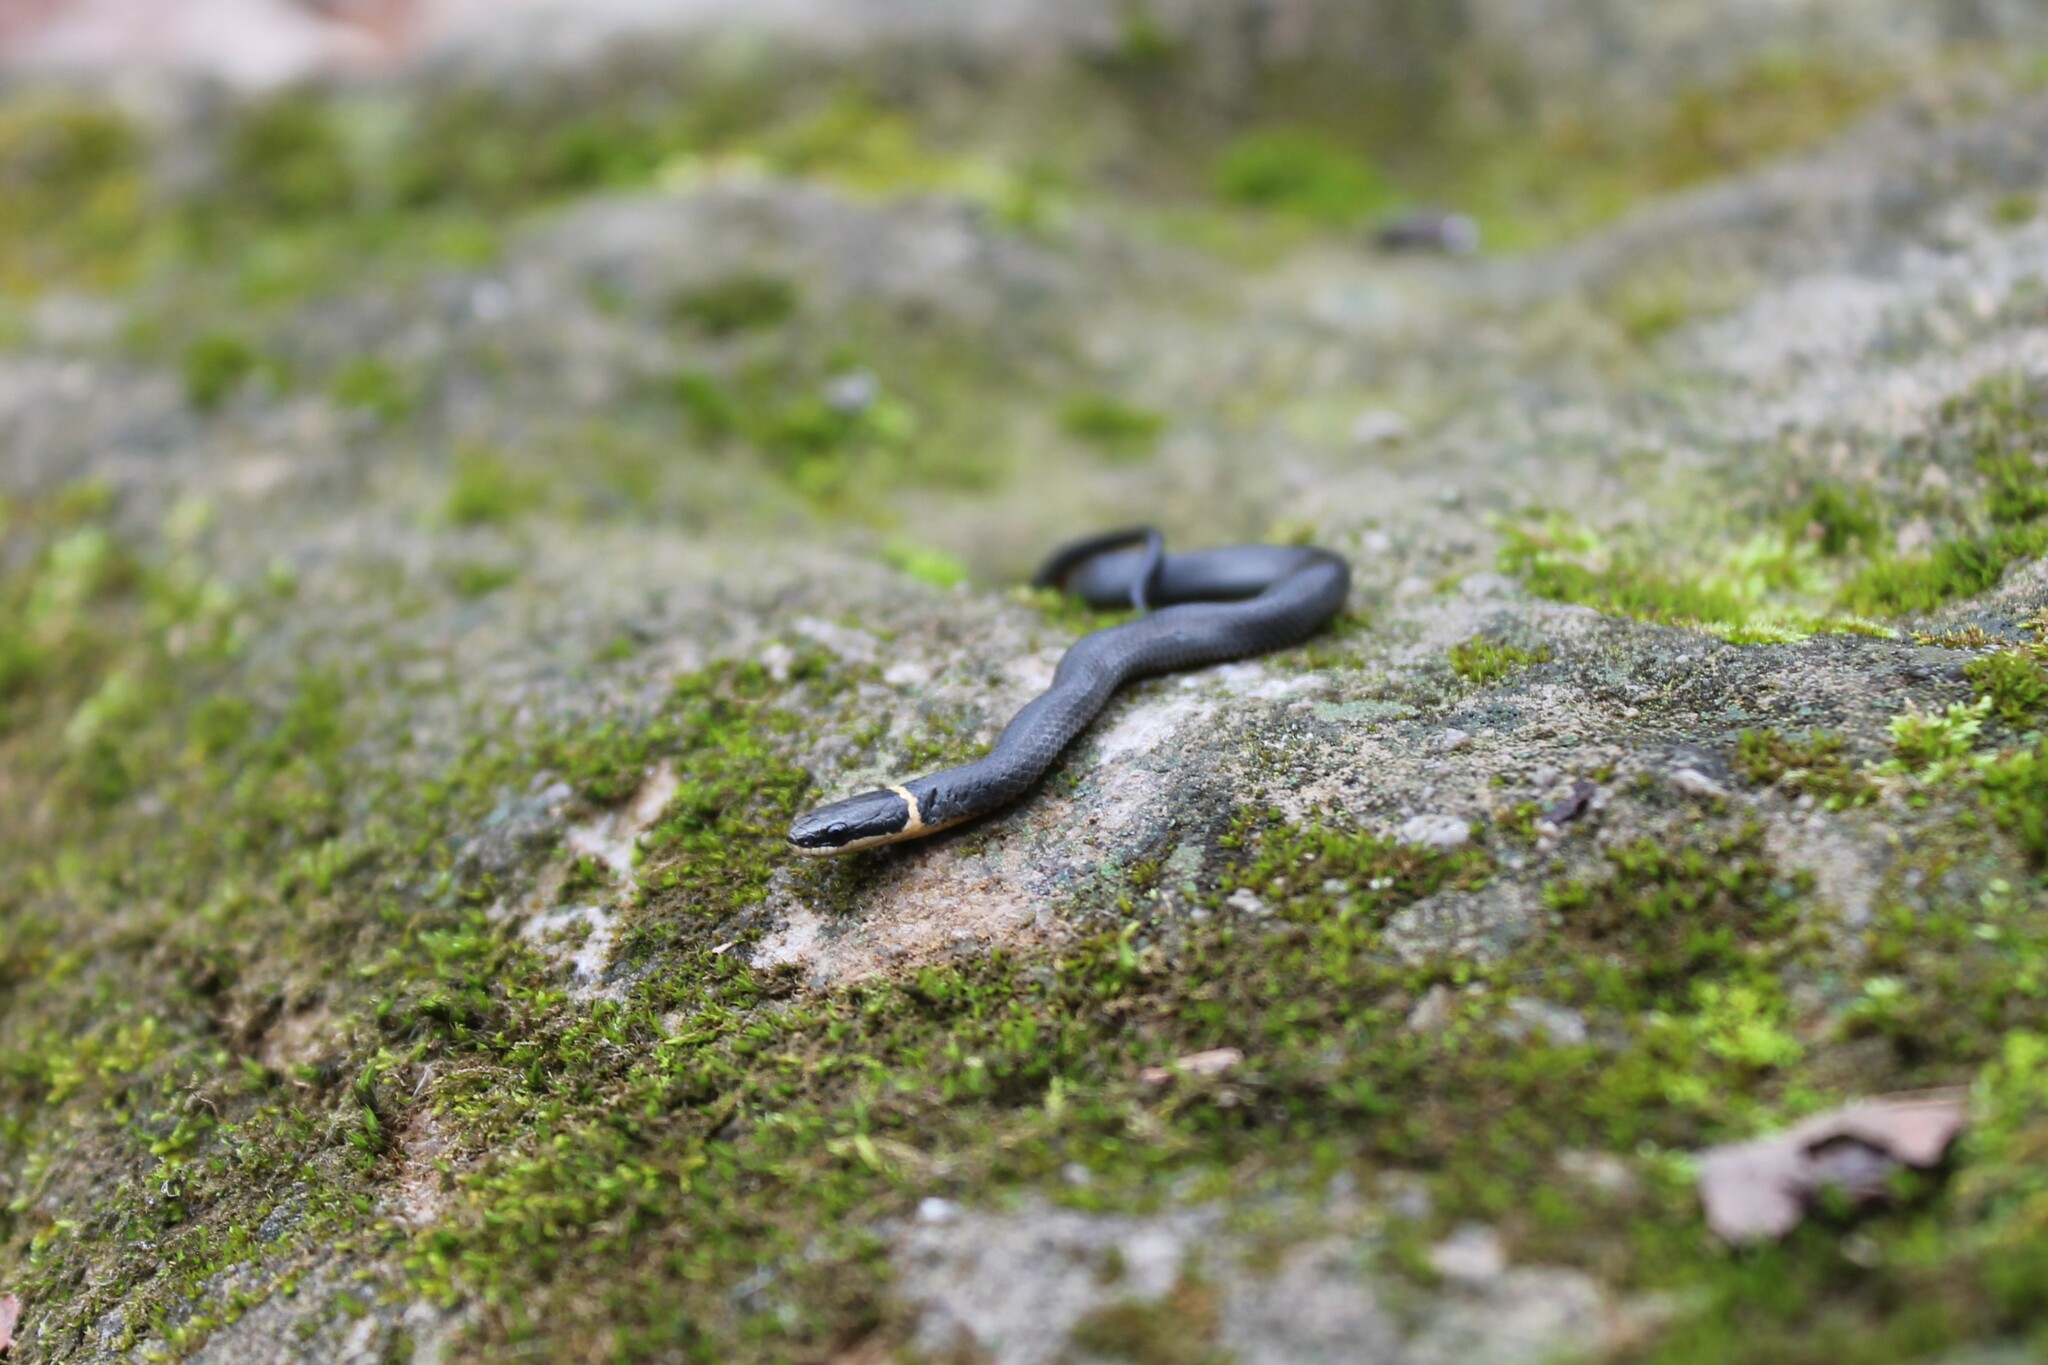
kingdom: Animalia
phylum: Chordata
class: Squamata
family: Colubridae
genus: Diadophis
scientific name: Diadophis punctatus
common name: Ringneck snake
